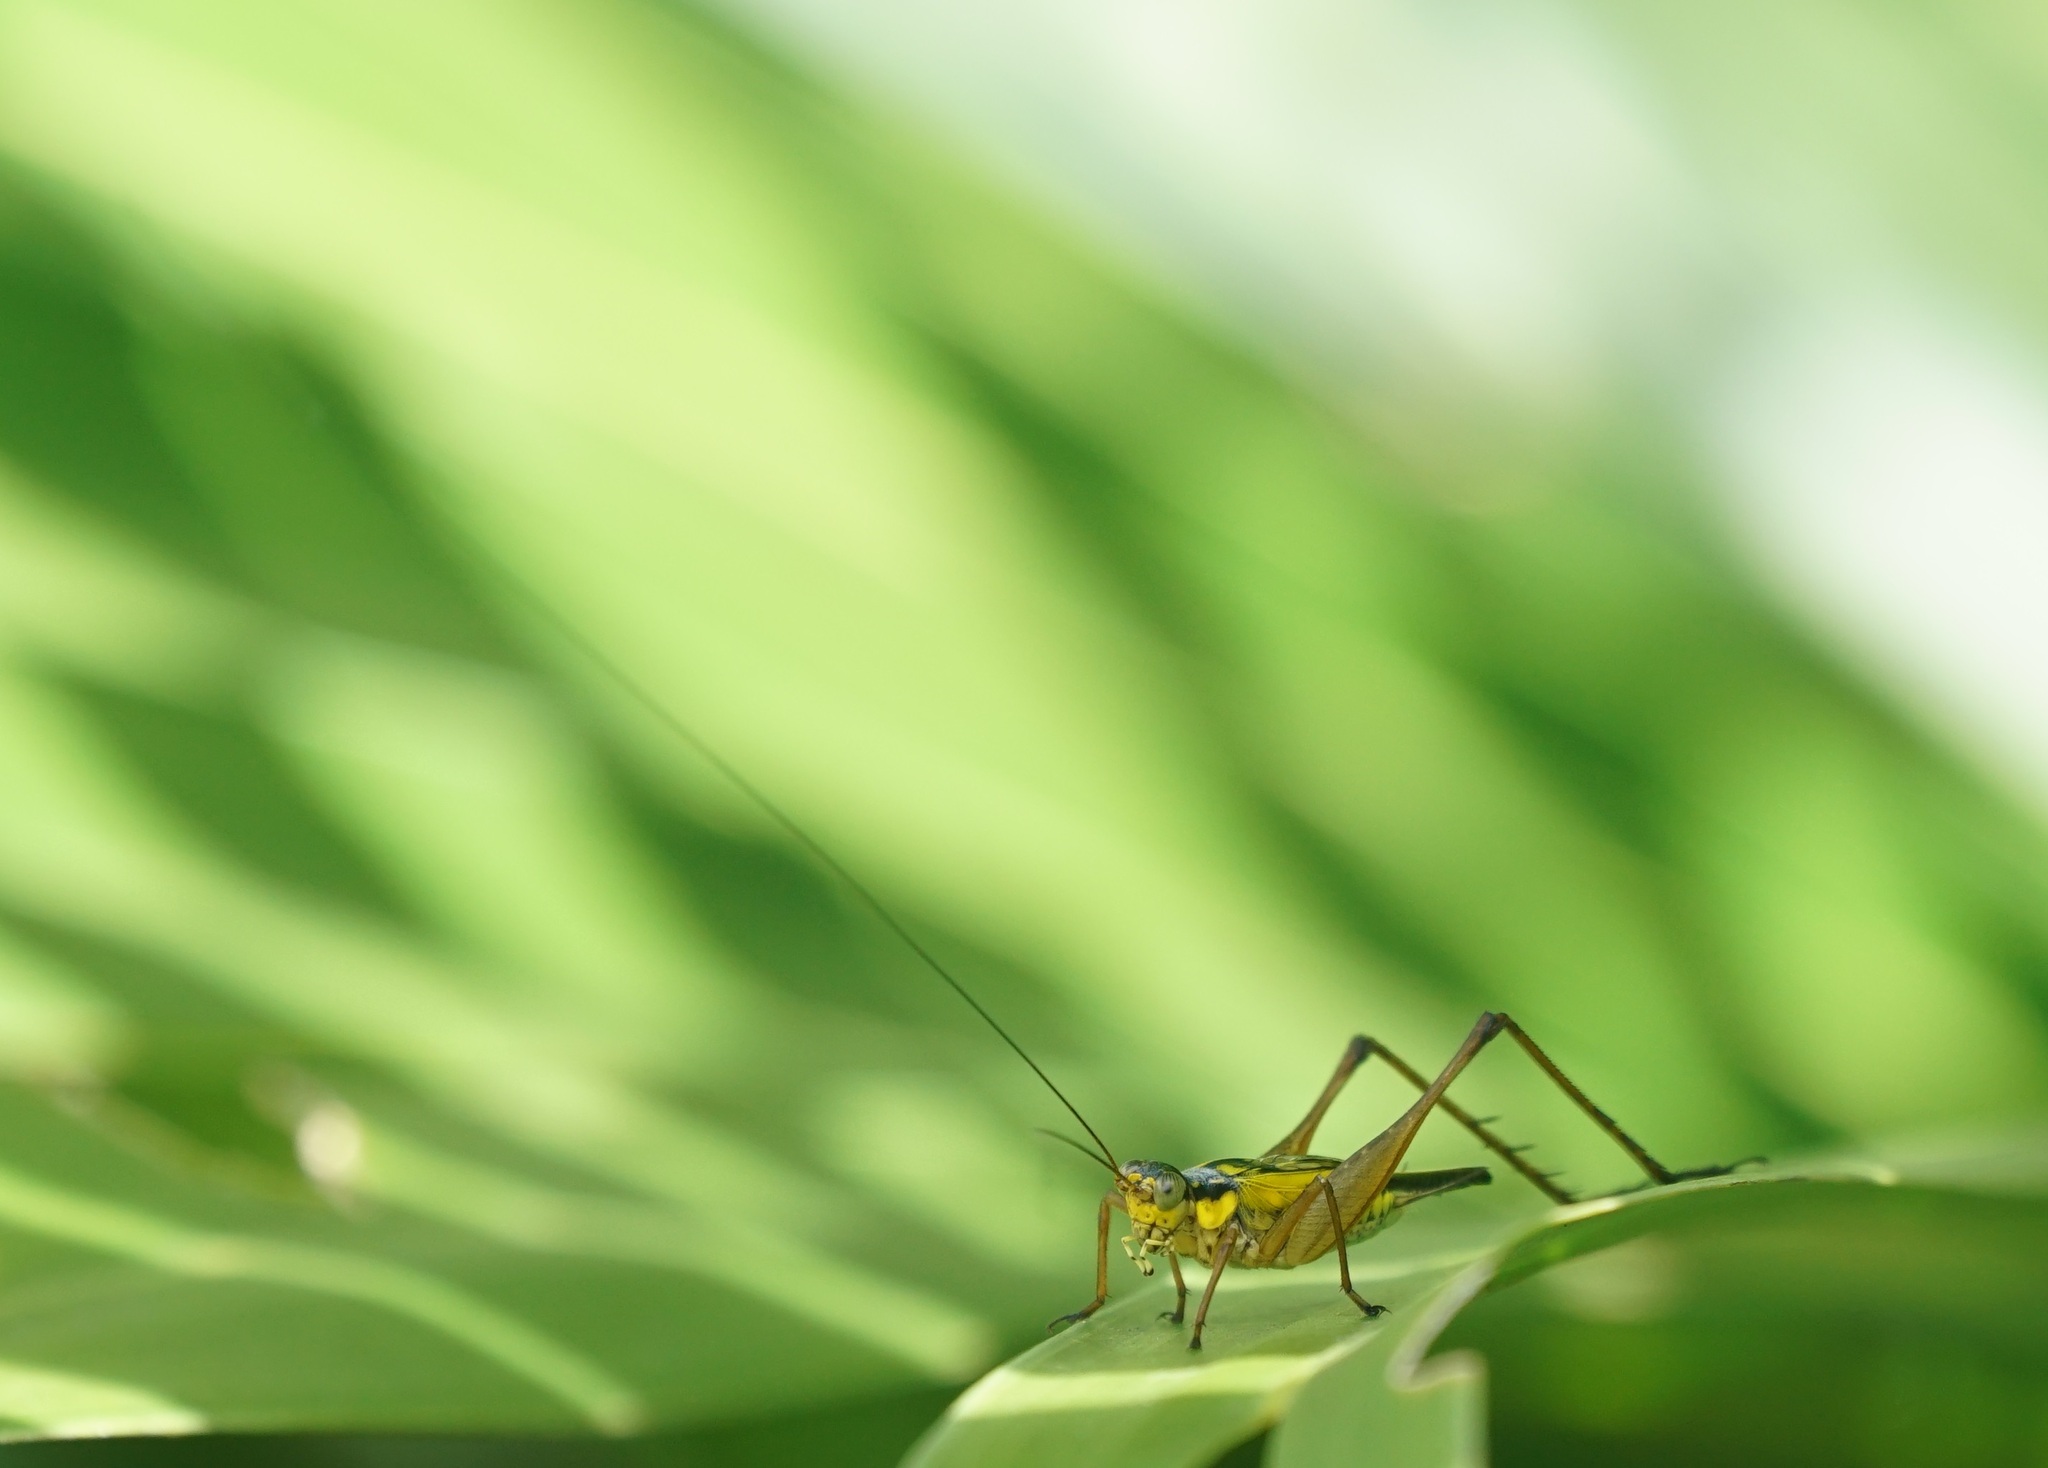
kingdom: Animalia
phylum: Arthropoda
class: Insecta
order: Orthoptera
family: Gryllidae
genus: Nisitrus
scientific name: Nisitrus vittatus
